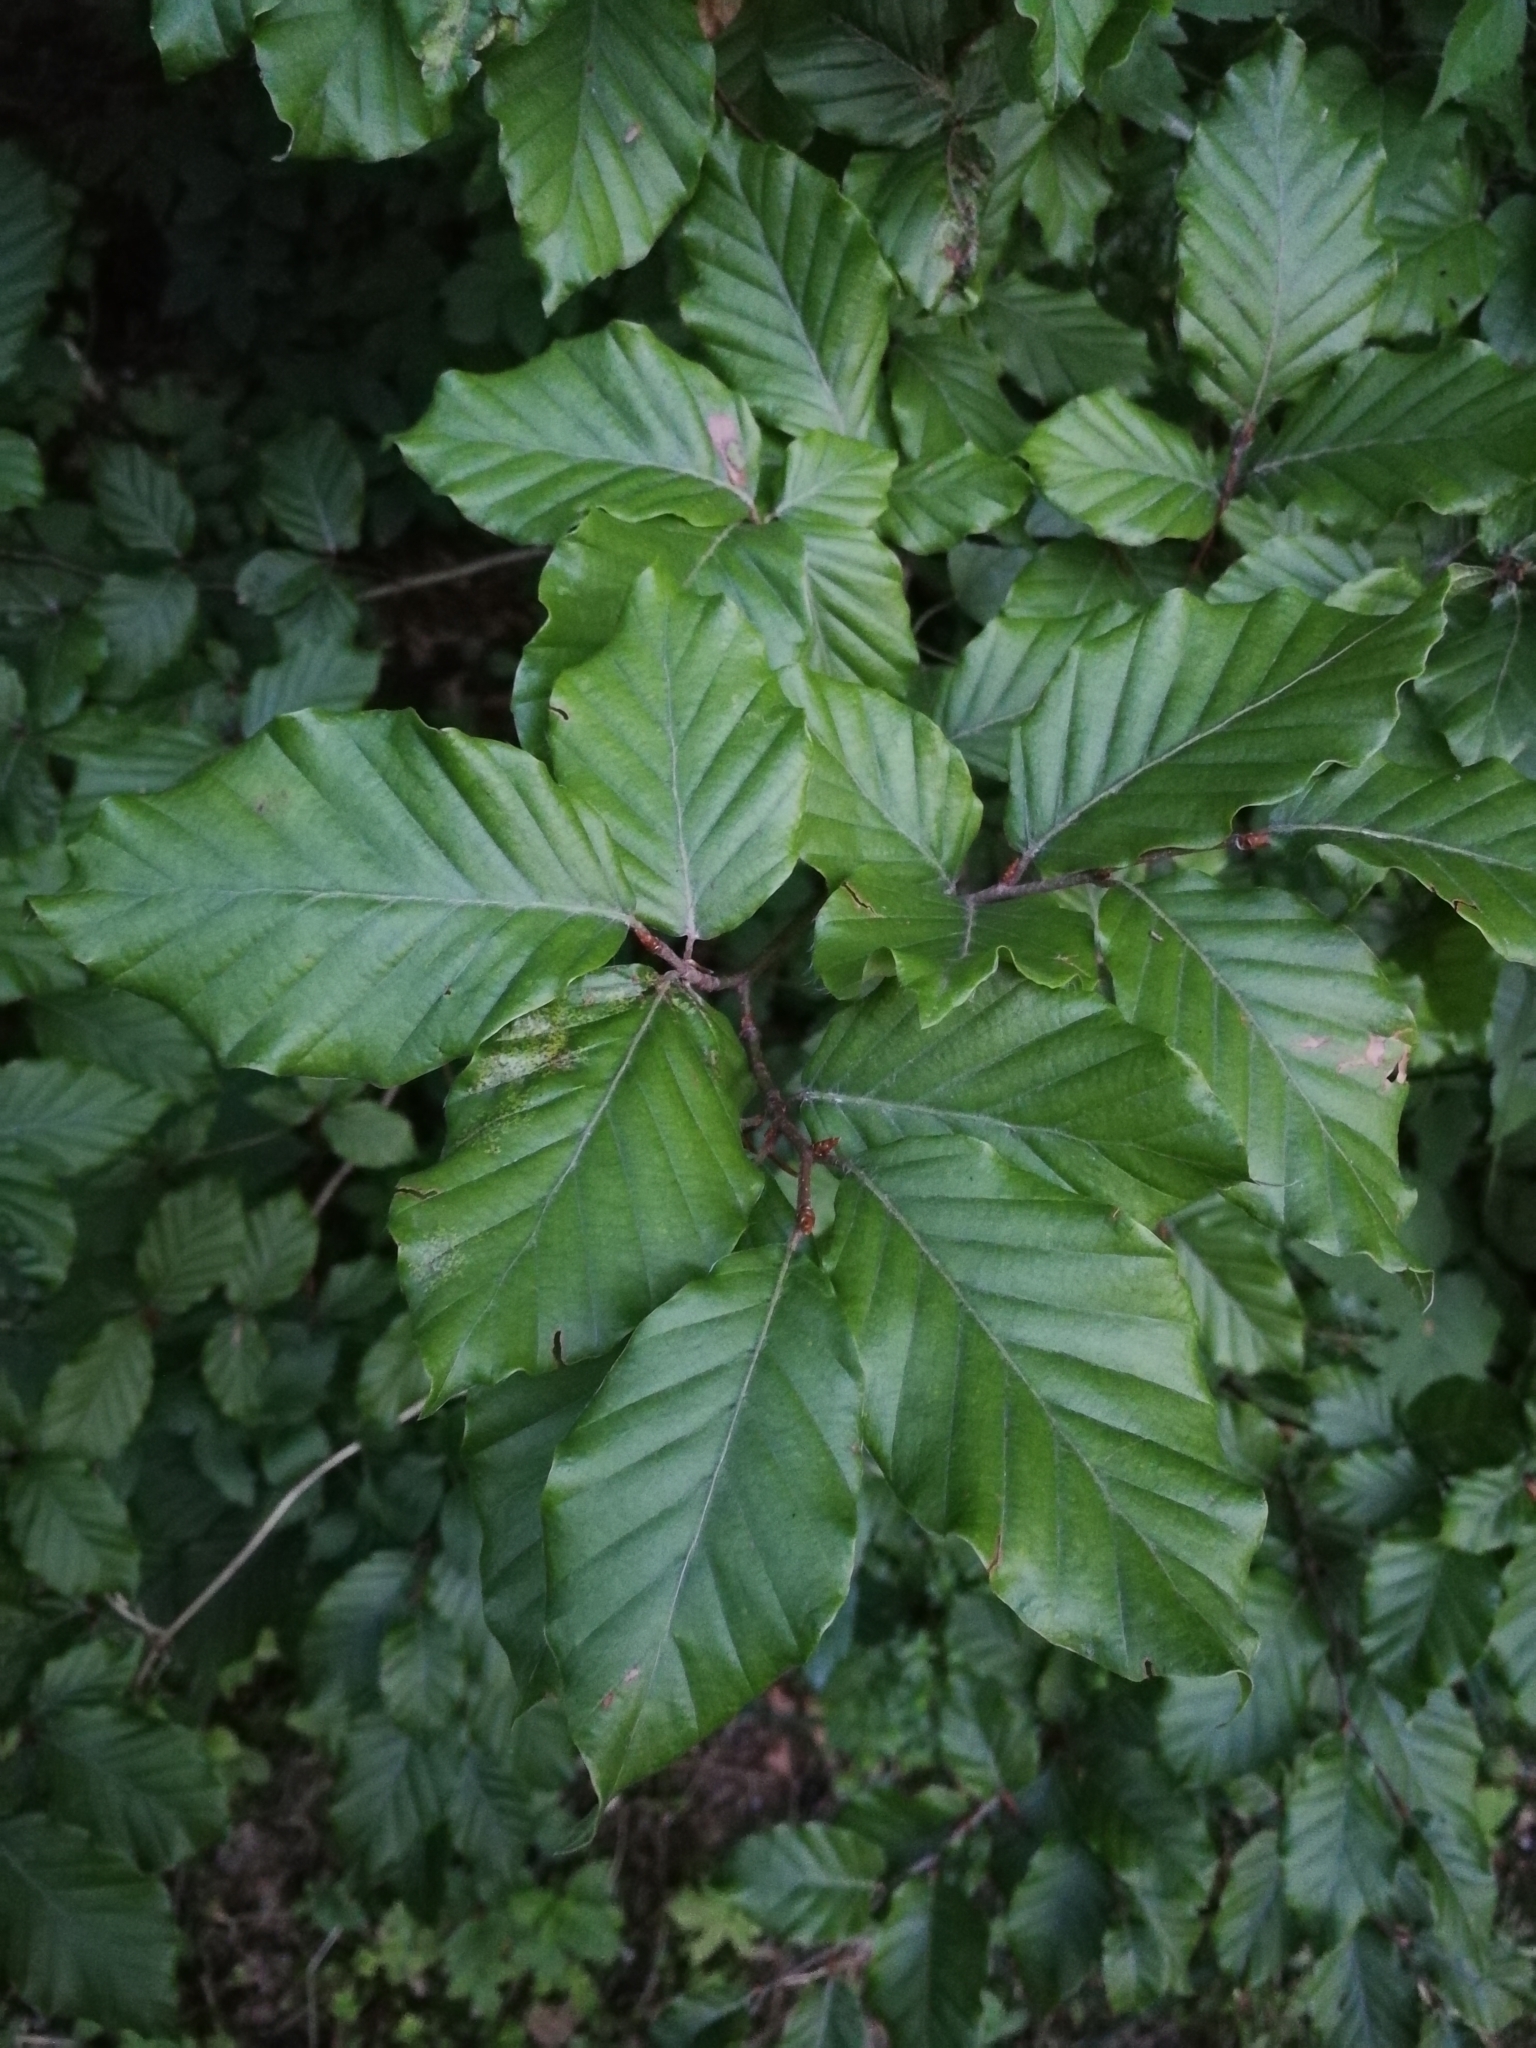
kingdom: Plantae
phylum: Tracheophyta
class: Magnoliopsida
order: Fagales
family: Fagaceae
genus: Fagus
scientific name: Fagus sylvatica
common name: Beech
